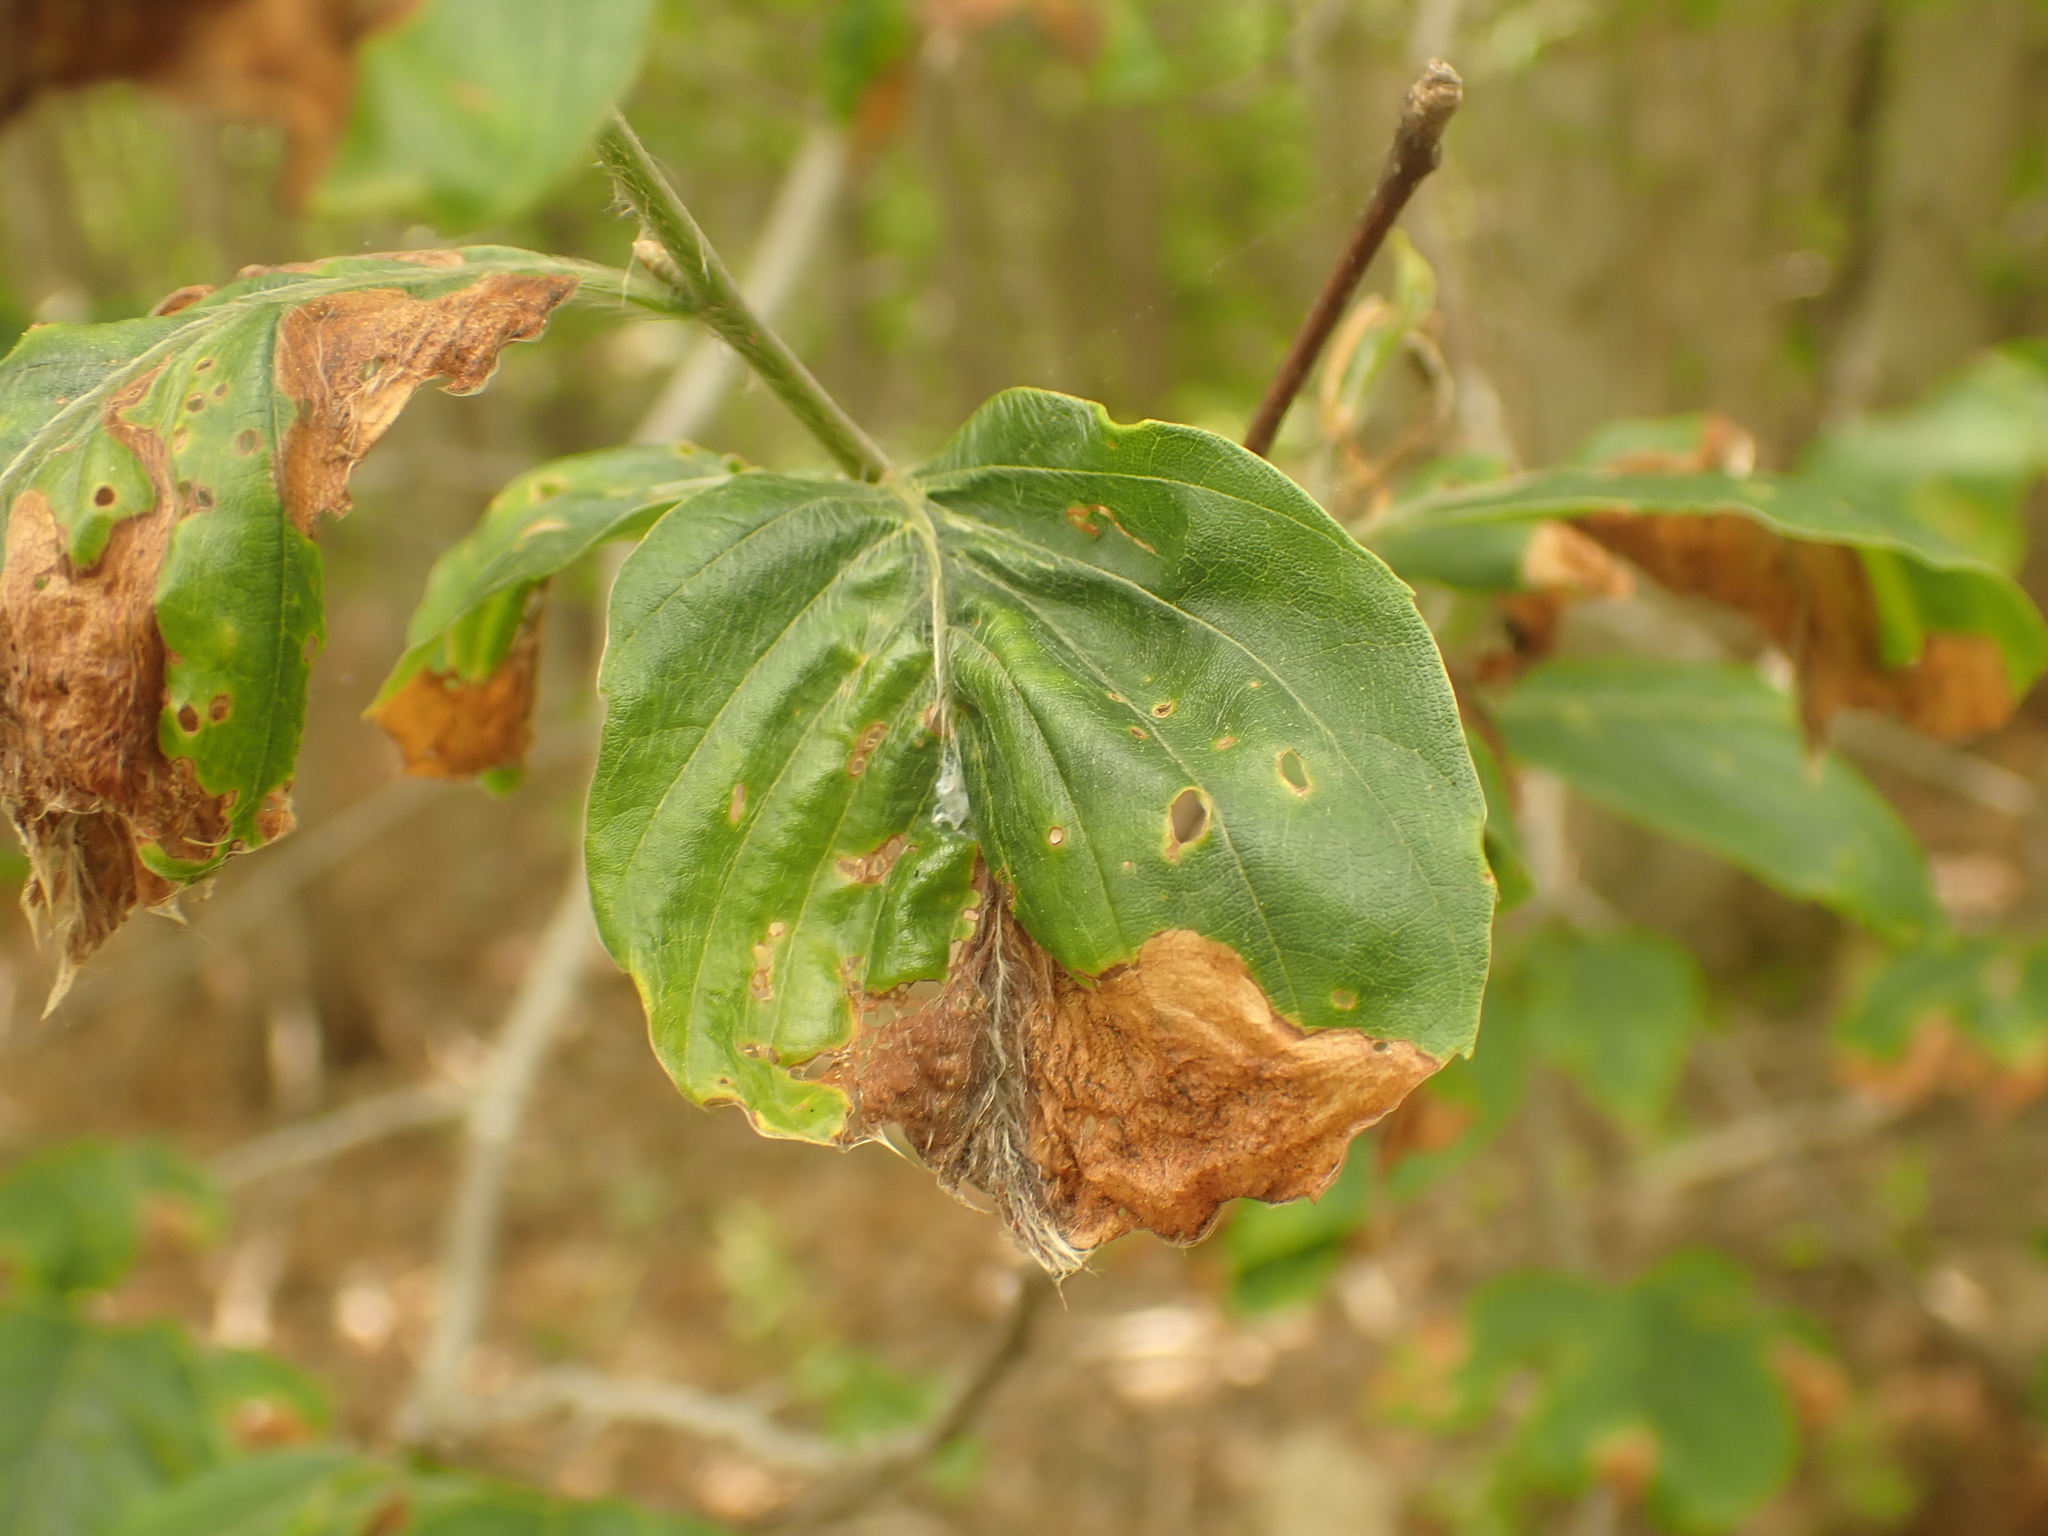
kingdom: Animalia
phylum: Arthropoda
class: Insecta
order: Coleoptera
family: Curculionidae
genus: Orchestes
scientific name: Orchestes fagi
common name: Beech leaf miner
